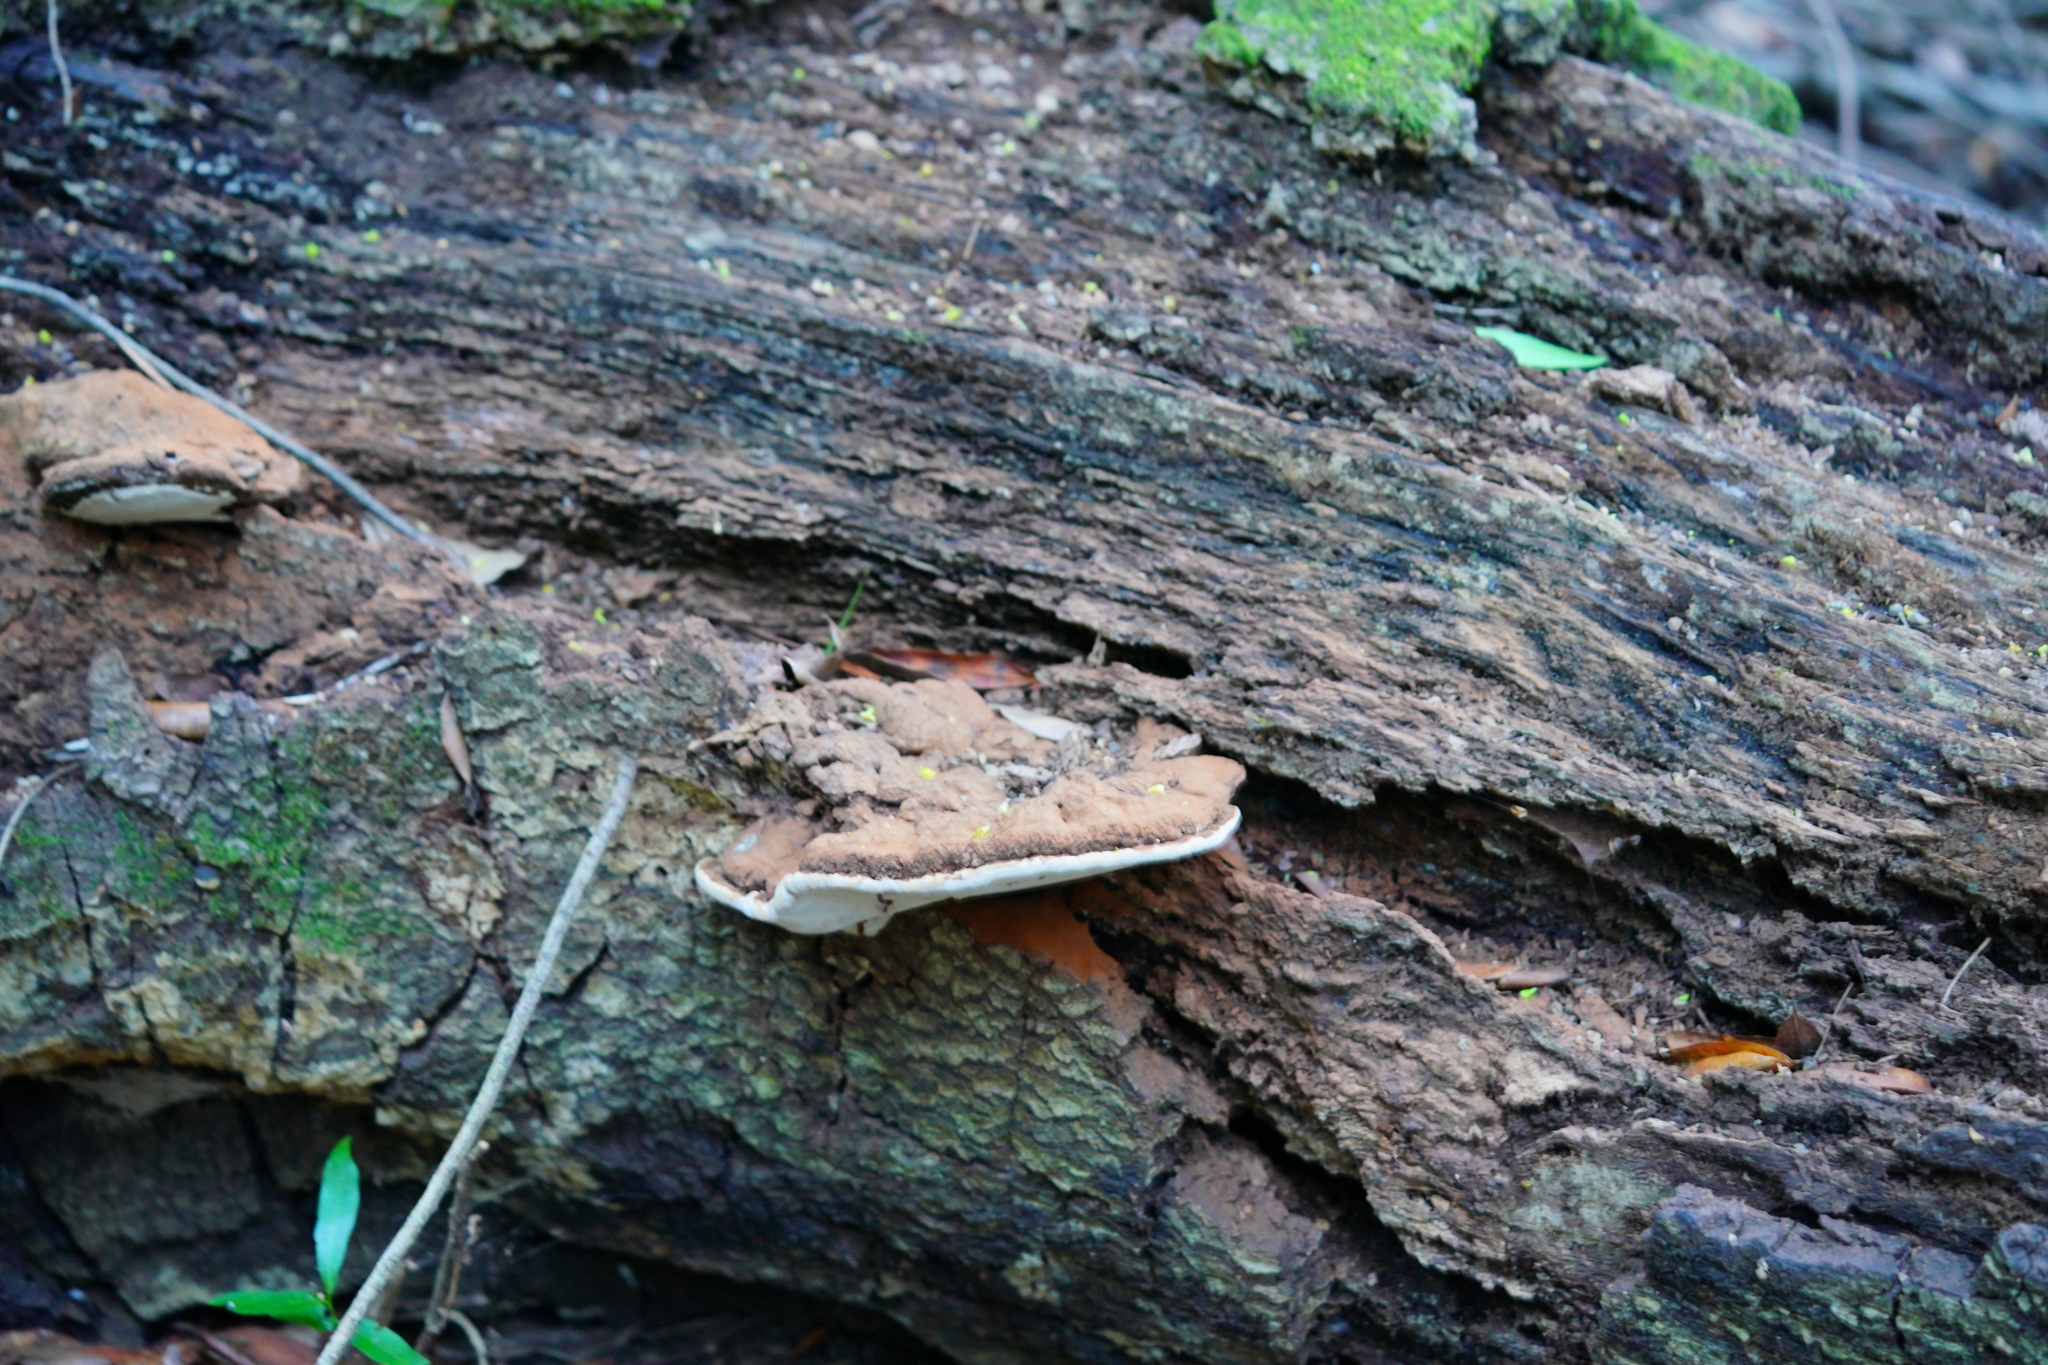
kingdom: Fungi
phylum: Basidiomycota
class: Agaricomycetes
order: Polyporales
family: Polyporaceae
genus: Ganoderma
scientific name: Ganoderma brownii
